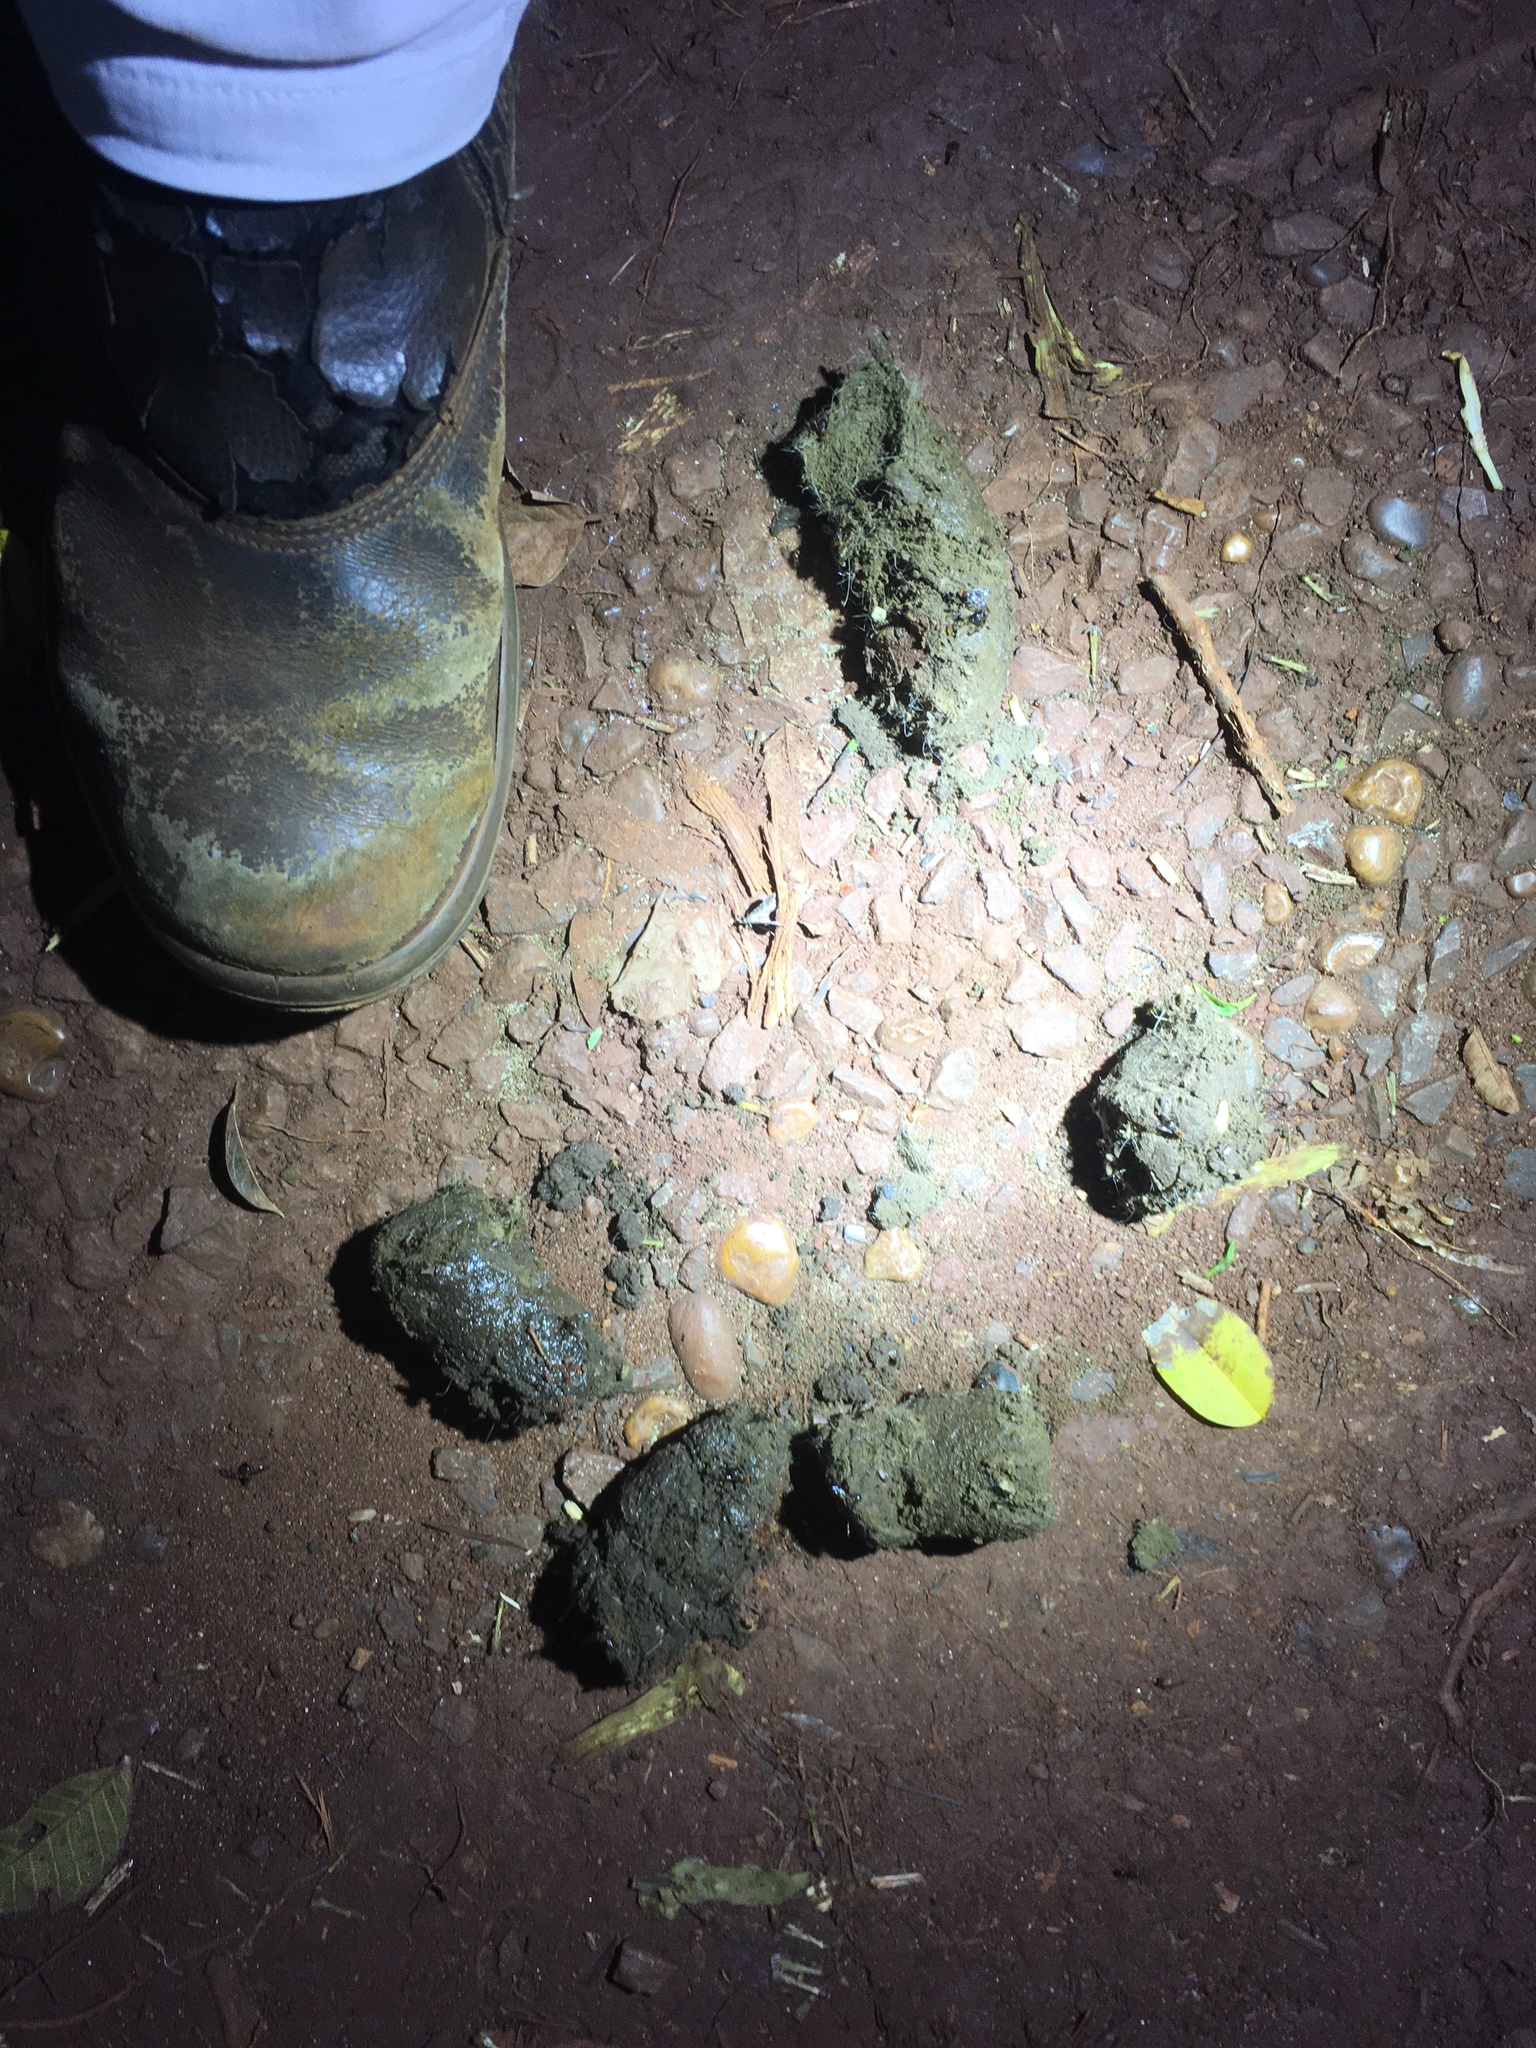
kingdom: Animalia
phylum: Chordata
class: Mammalia
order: Carnivora
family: Felidae
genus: Panthera
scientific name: Panthera onca
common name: Jaguar
